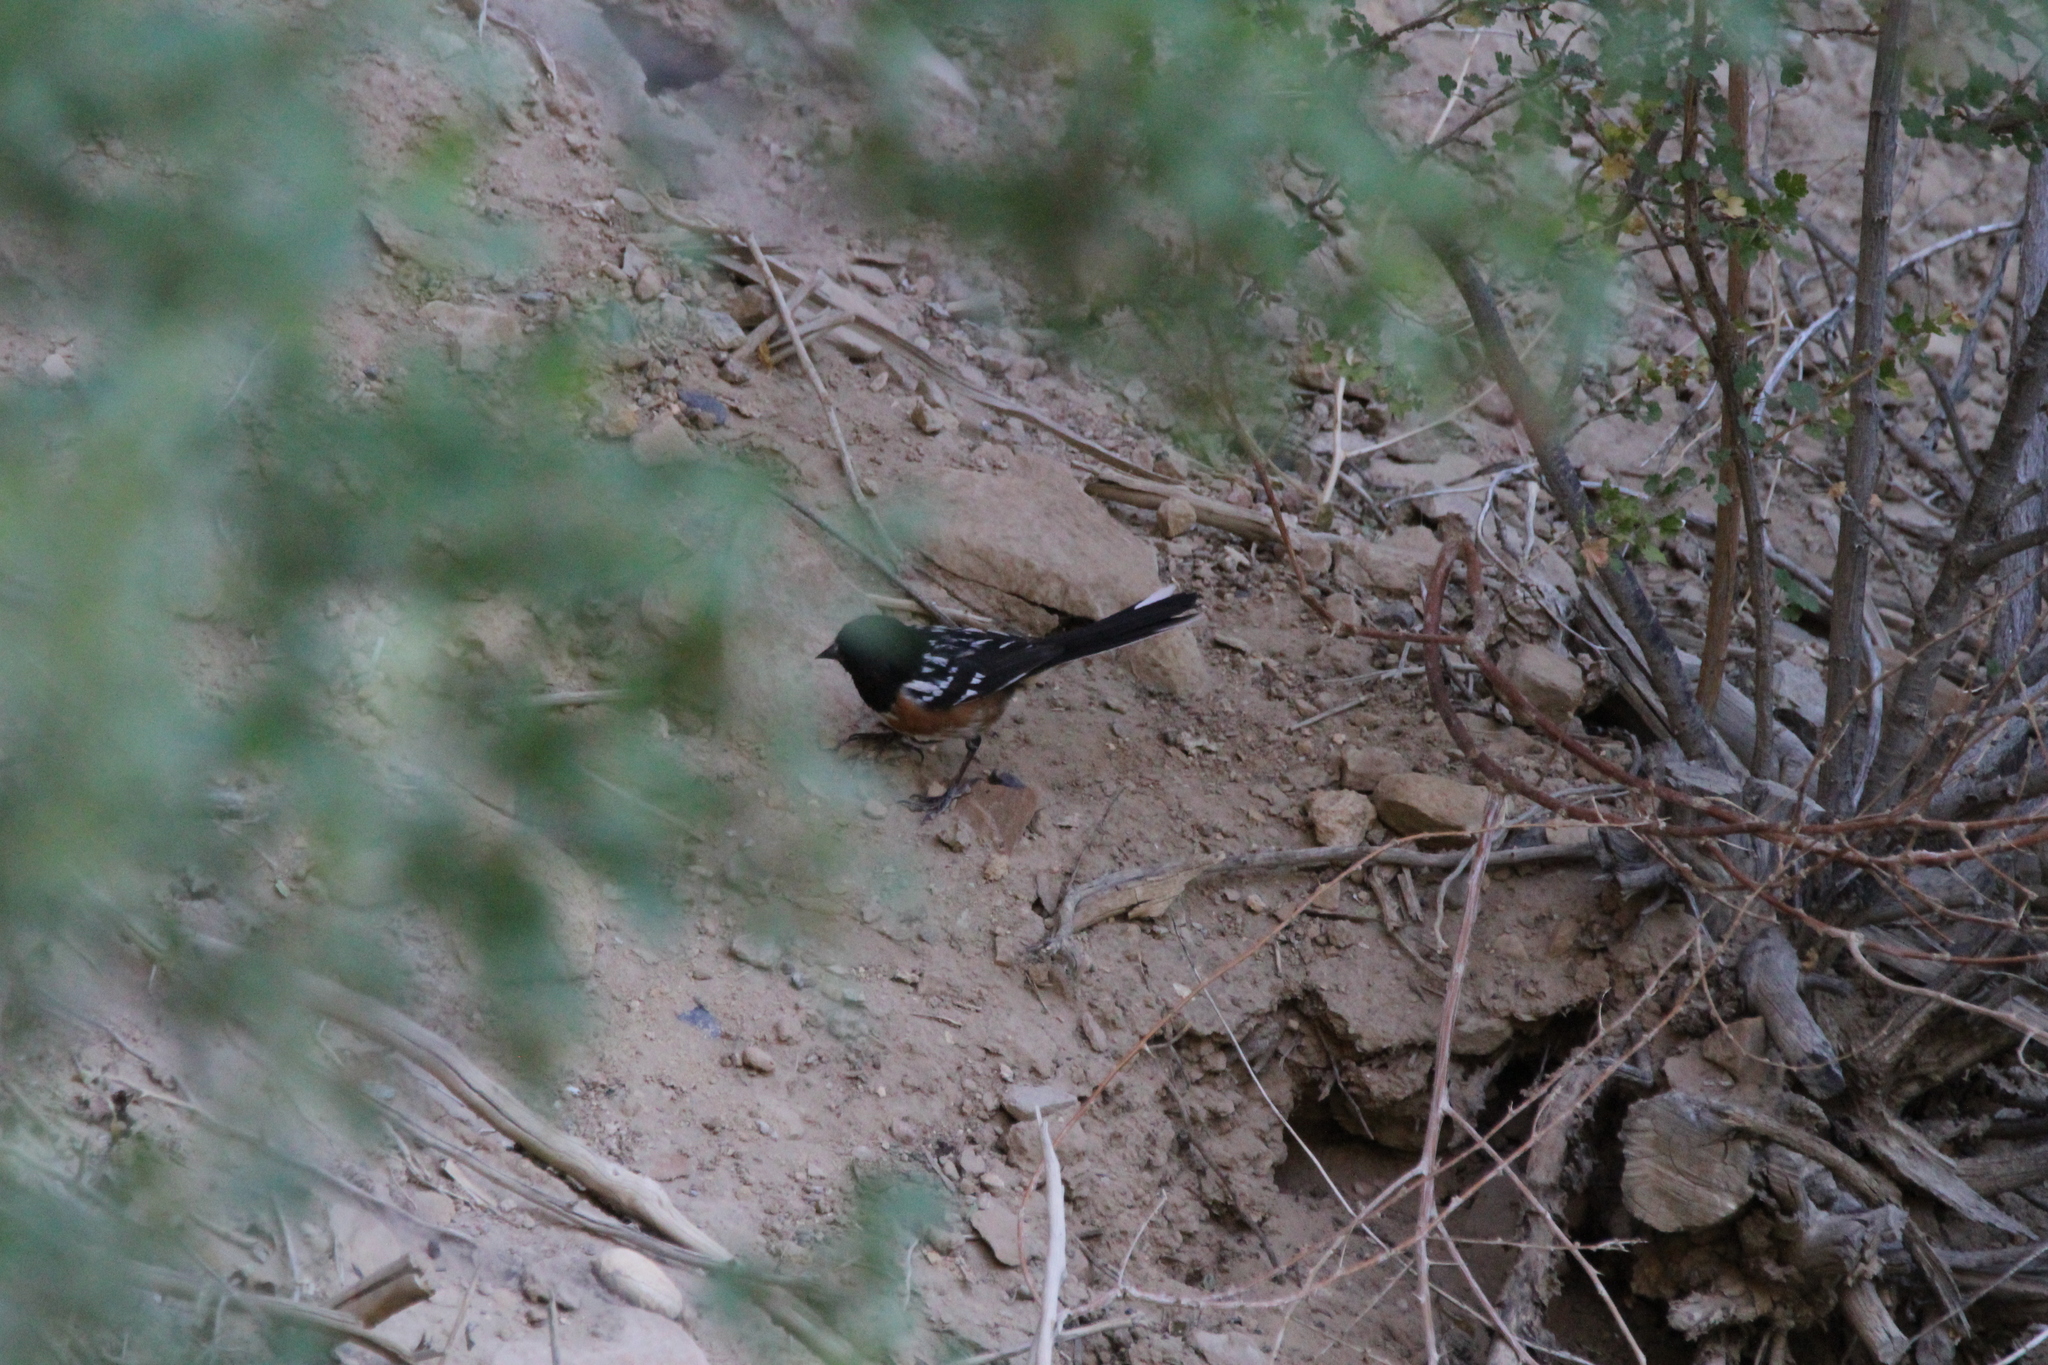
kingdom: Animalia
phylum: Chordata
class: Aves
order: Passeriformes
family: Passerellidae
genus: Pipilo
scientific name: Pipilo maculatus
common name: Spotted towhee
